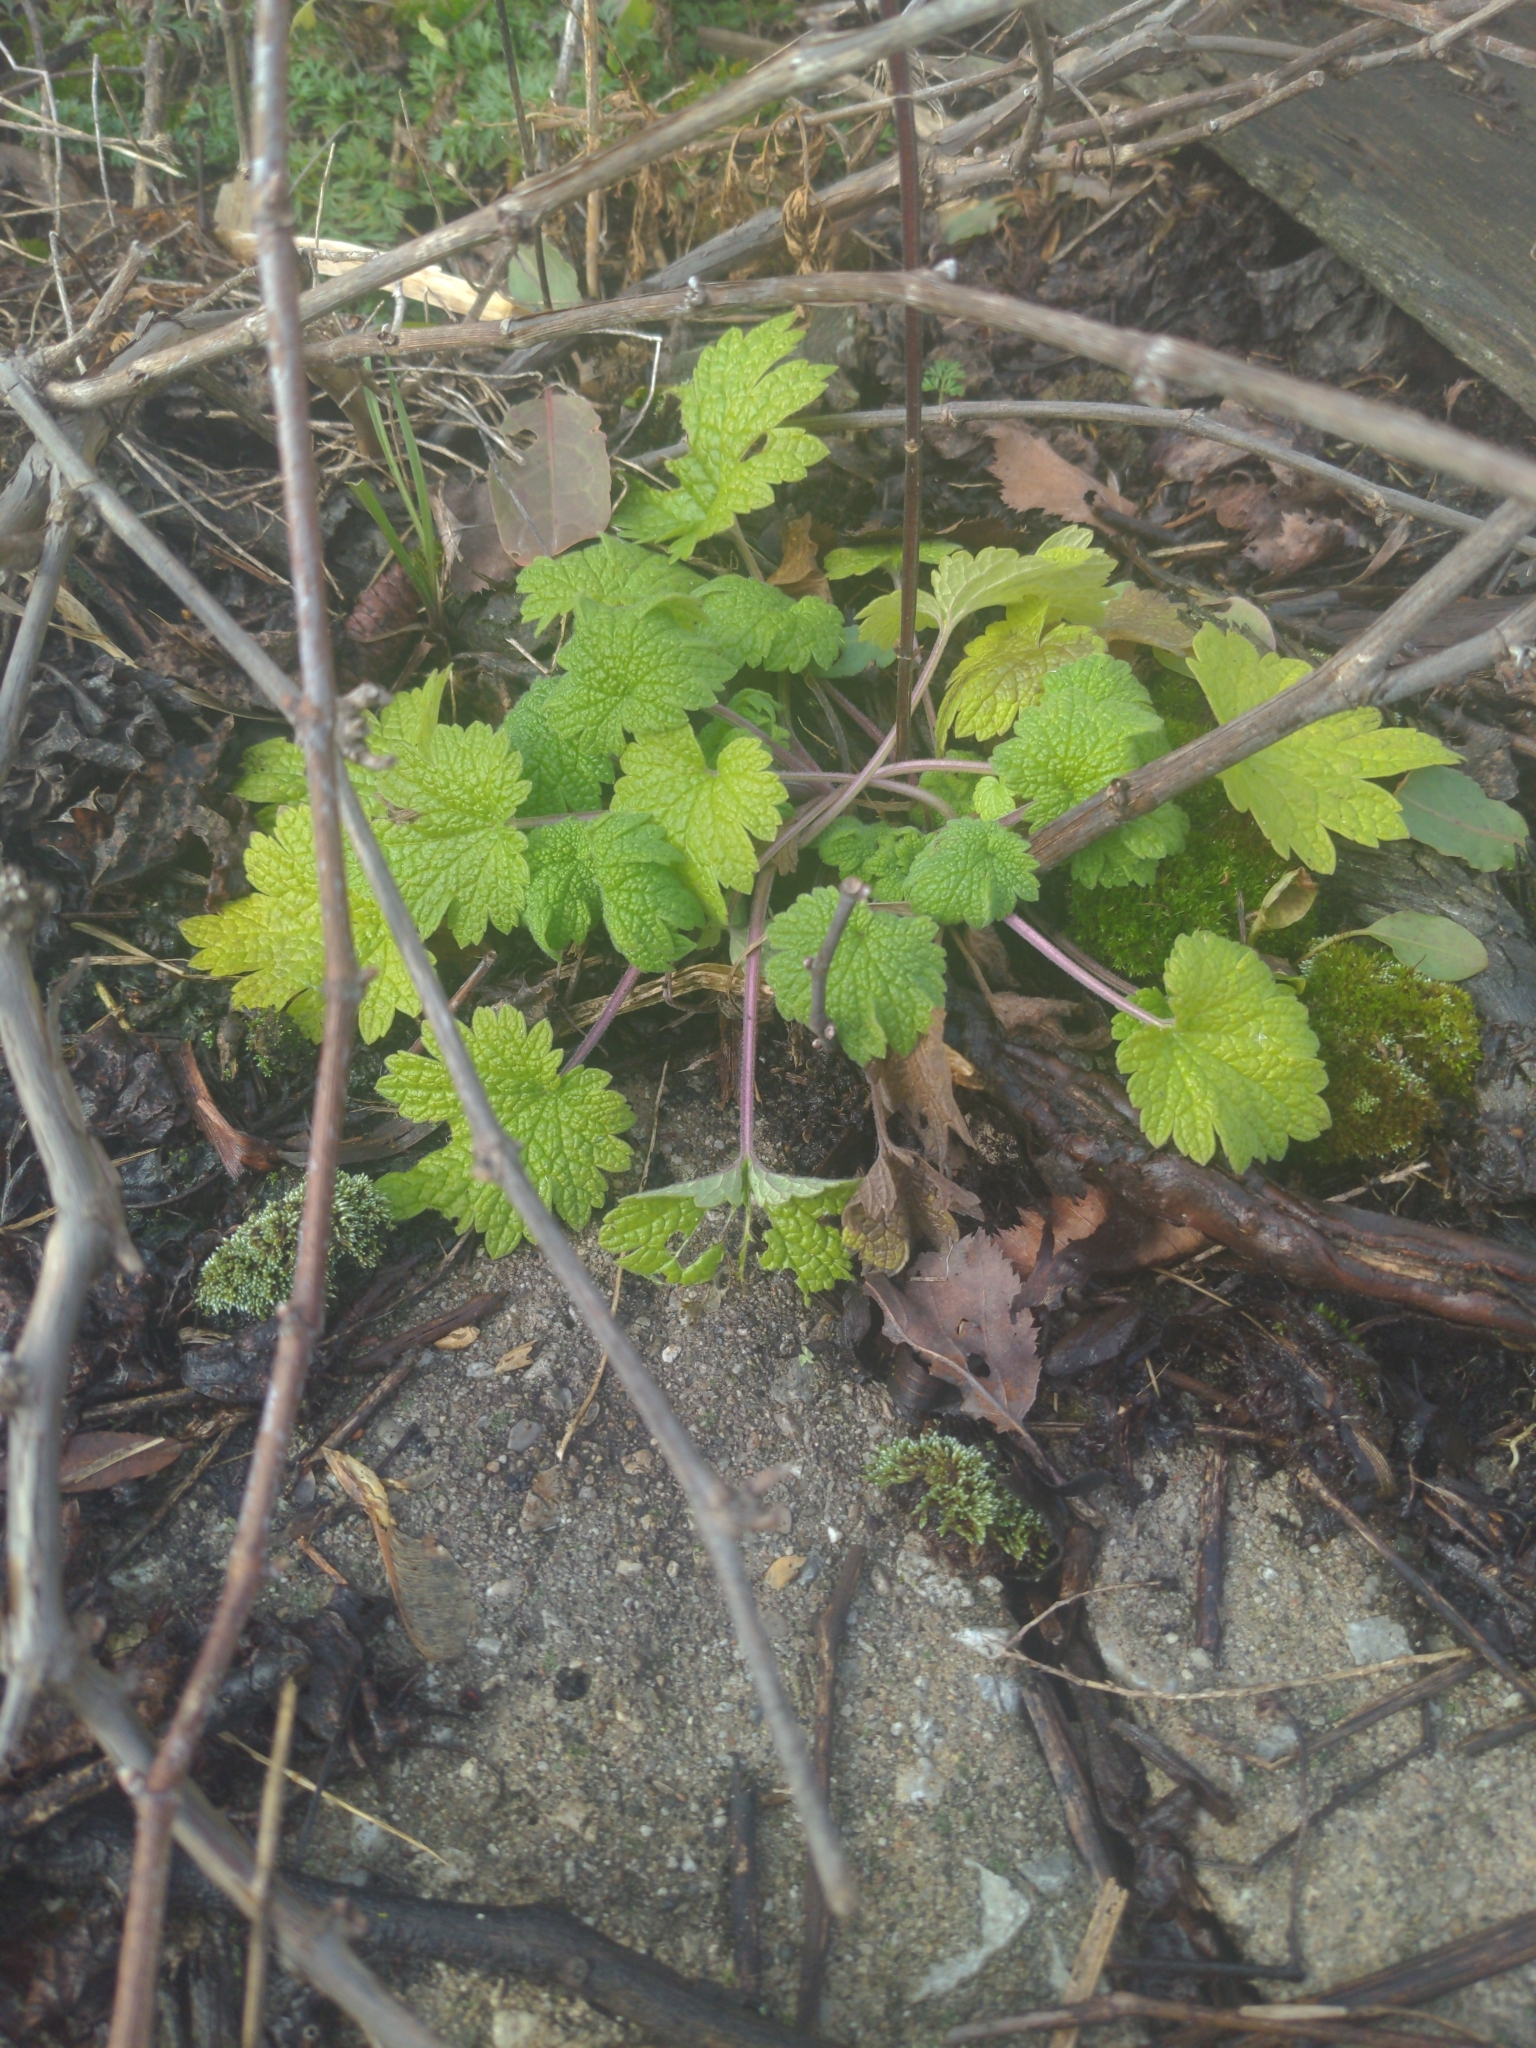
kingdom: Plantae
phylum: Tracheophyta
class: Magnoliopsida
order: Lamiales
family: Lamiaceae
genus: Leonurus
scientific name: Leonurus cardiaca
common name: Motherwort
